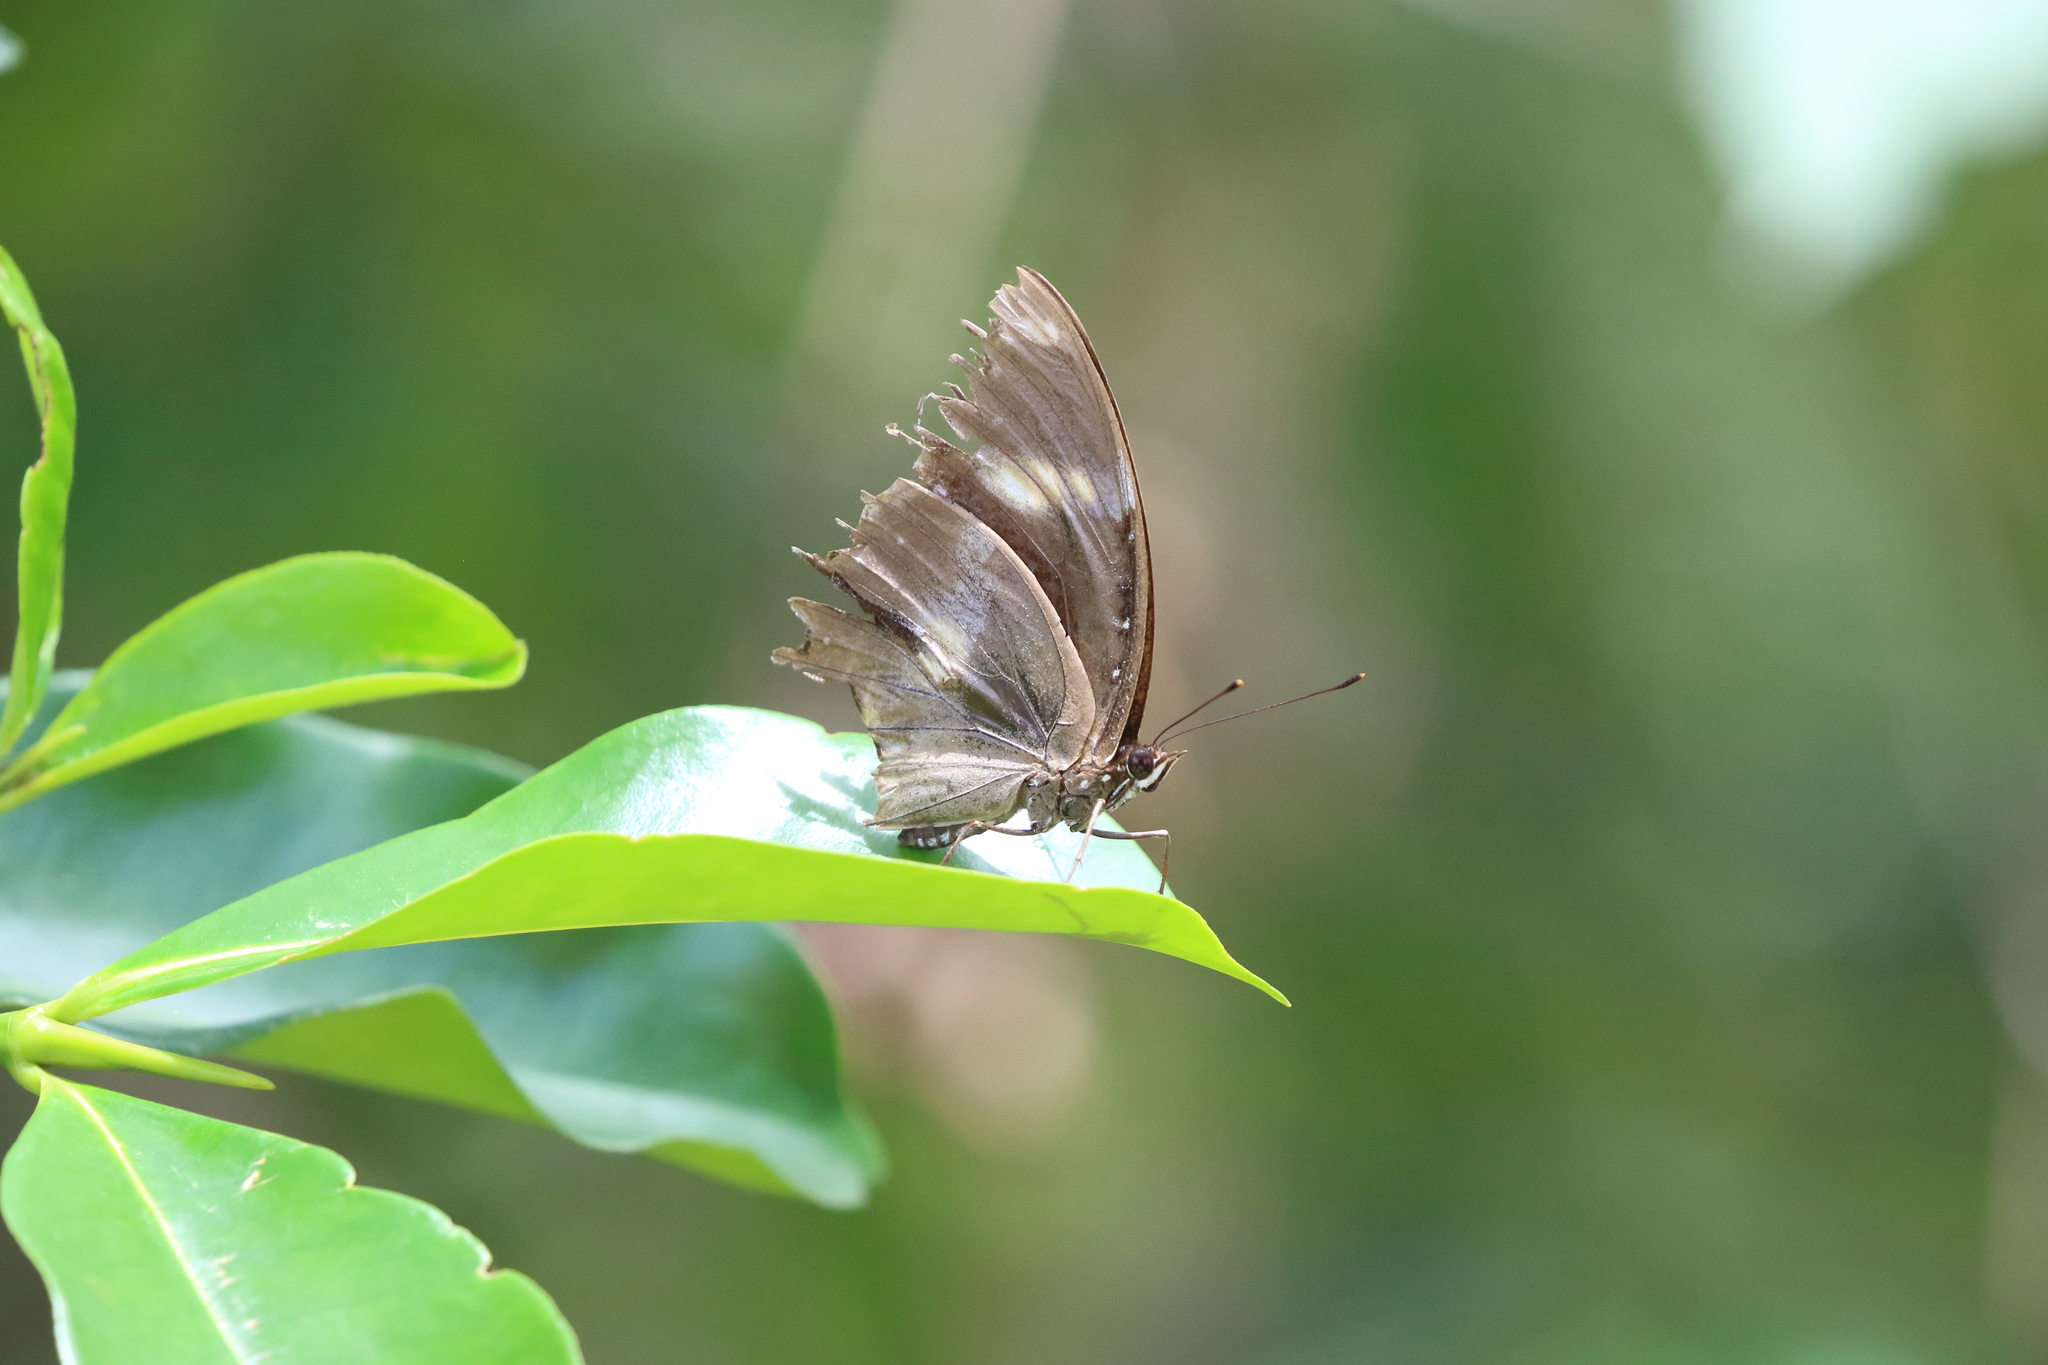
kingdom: Animalia
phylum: Arthropoda
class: Insecta
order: Lepidoptera
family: Nymphalidae
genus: Hypolimnas
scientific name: Hypolimnas bolina
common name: Great eggfly
